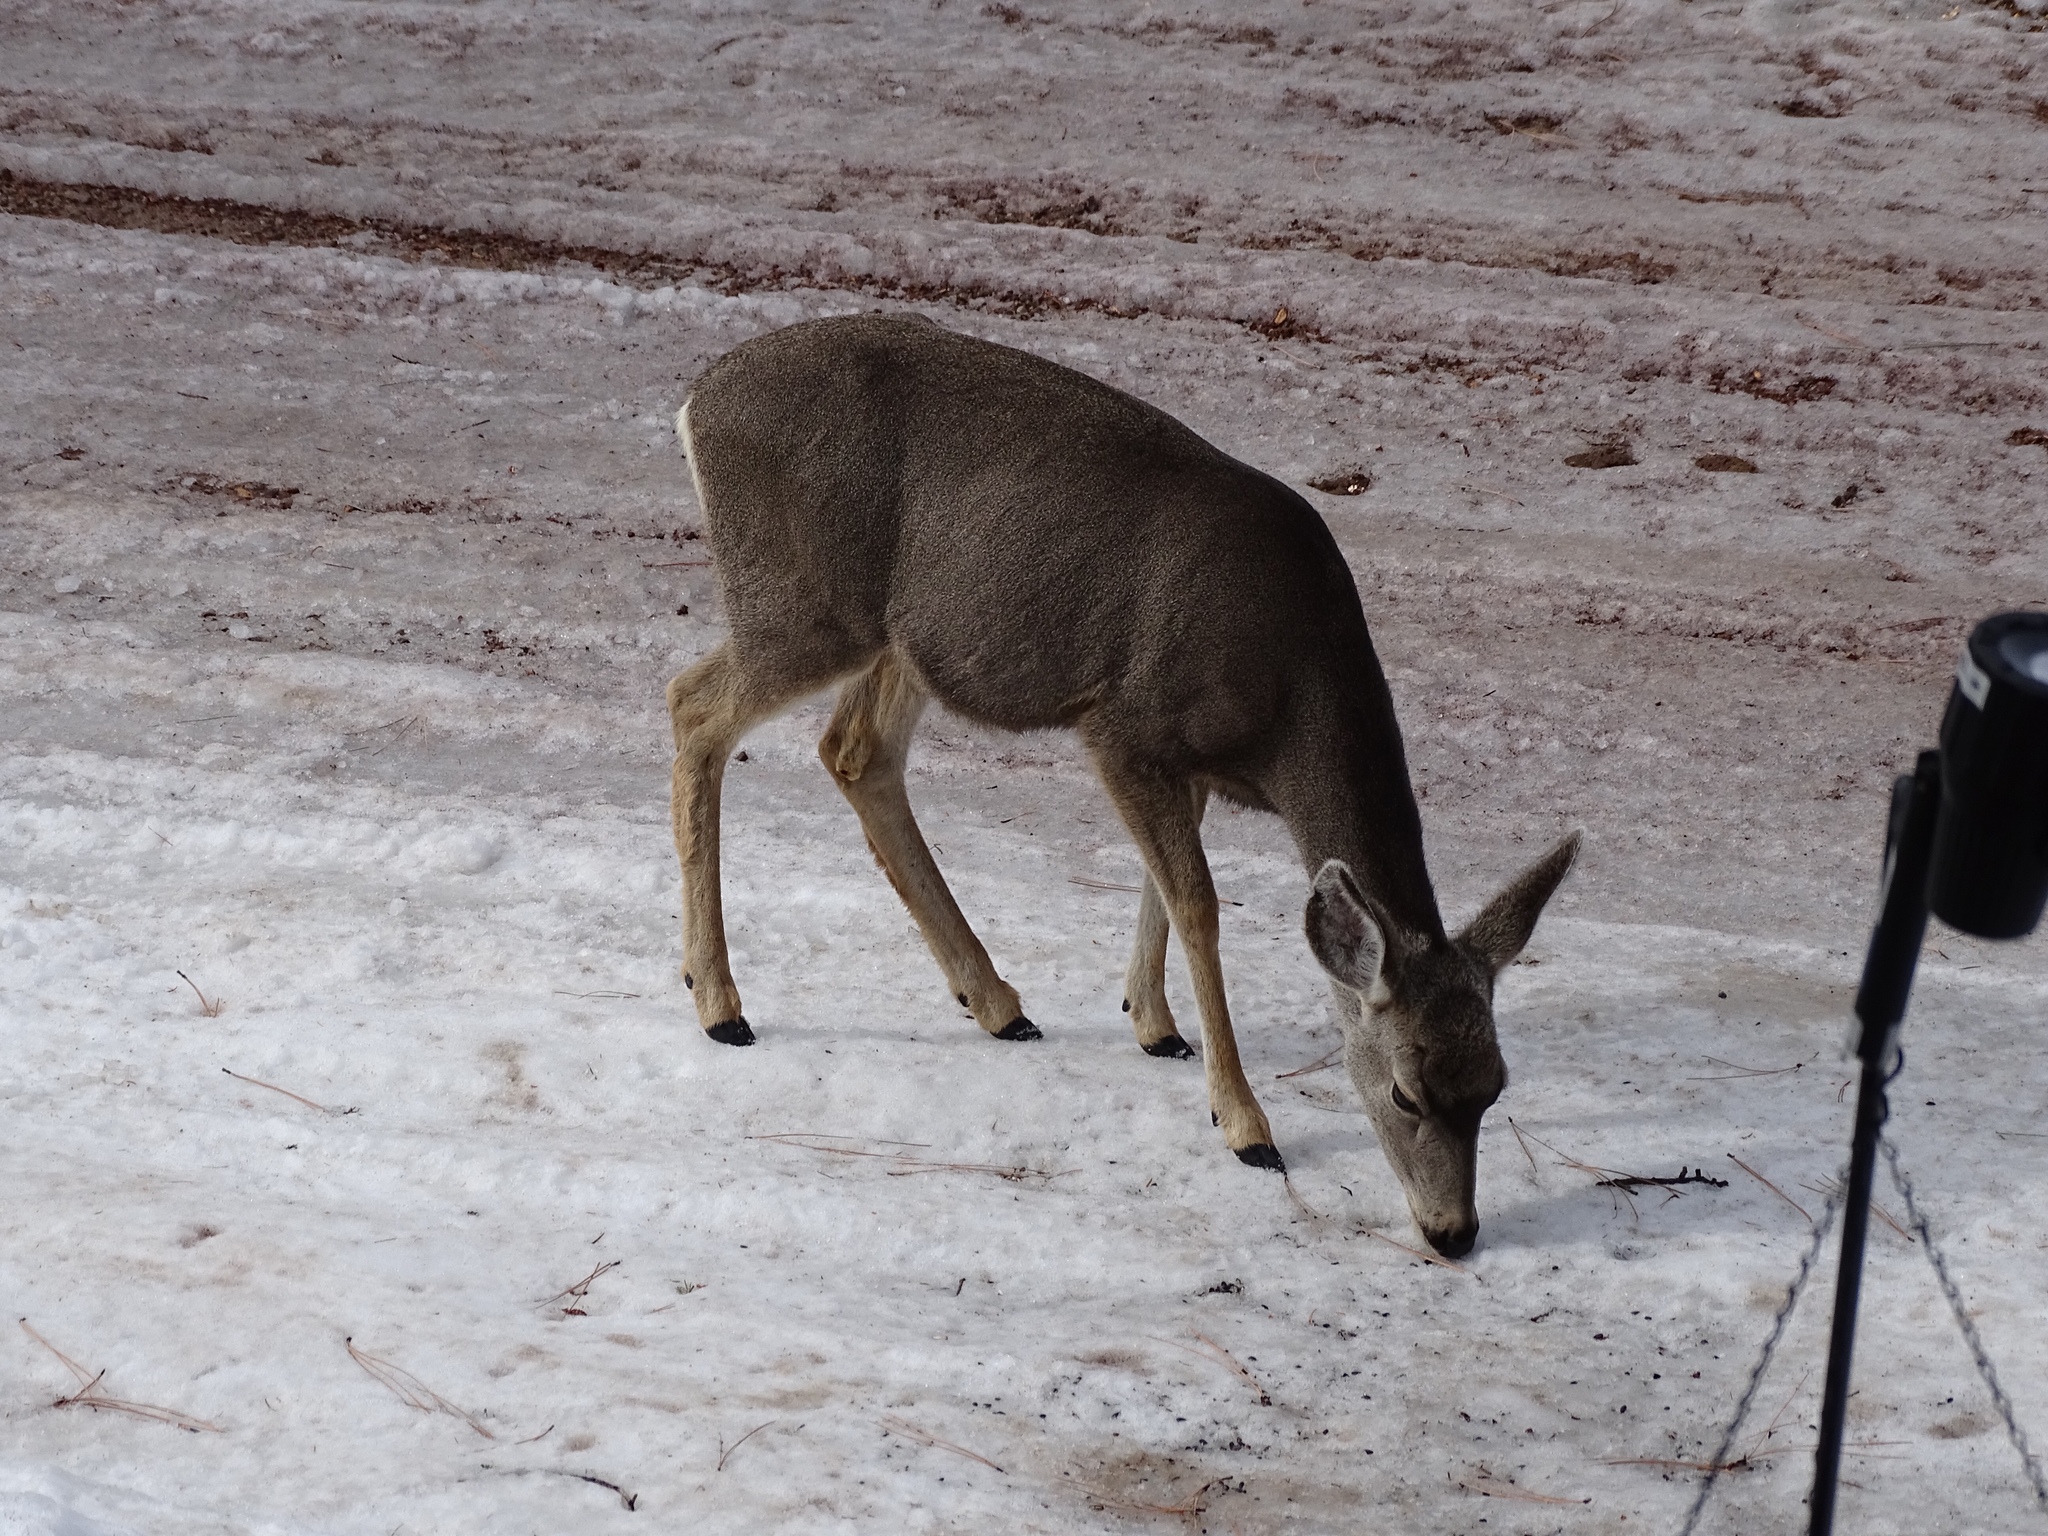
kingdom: Animalia
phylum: Chordata
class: Mammalia
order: Artiodactyla
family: Cervidae
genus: Odocoileus
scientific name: Odocoileus hemionus
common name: Mule deer
